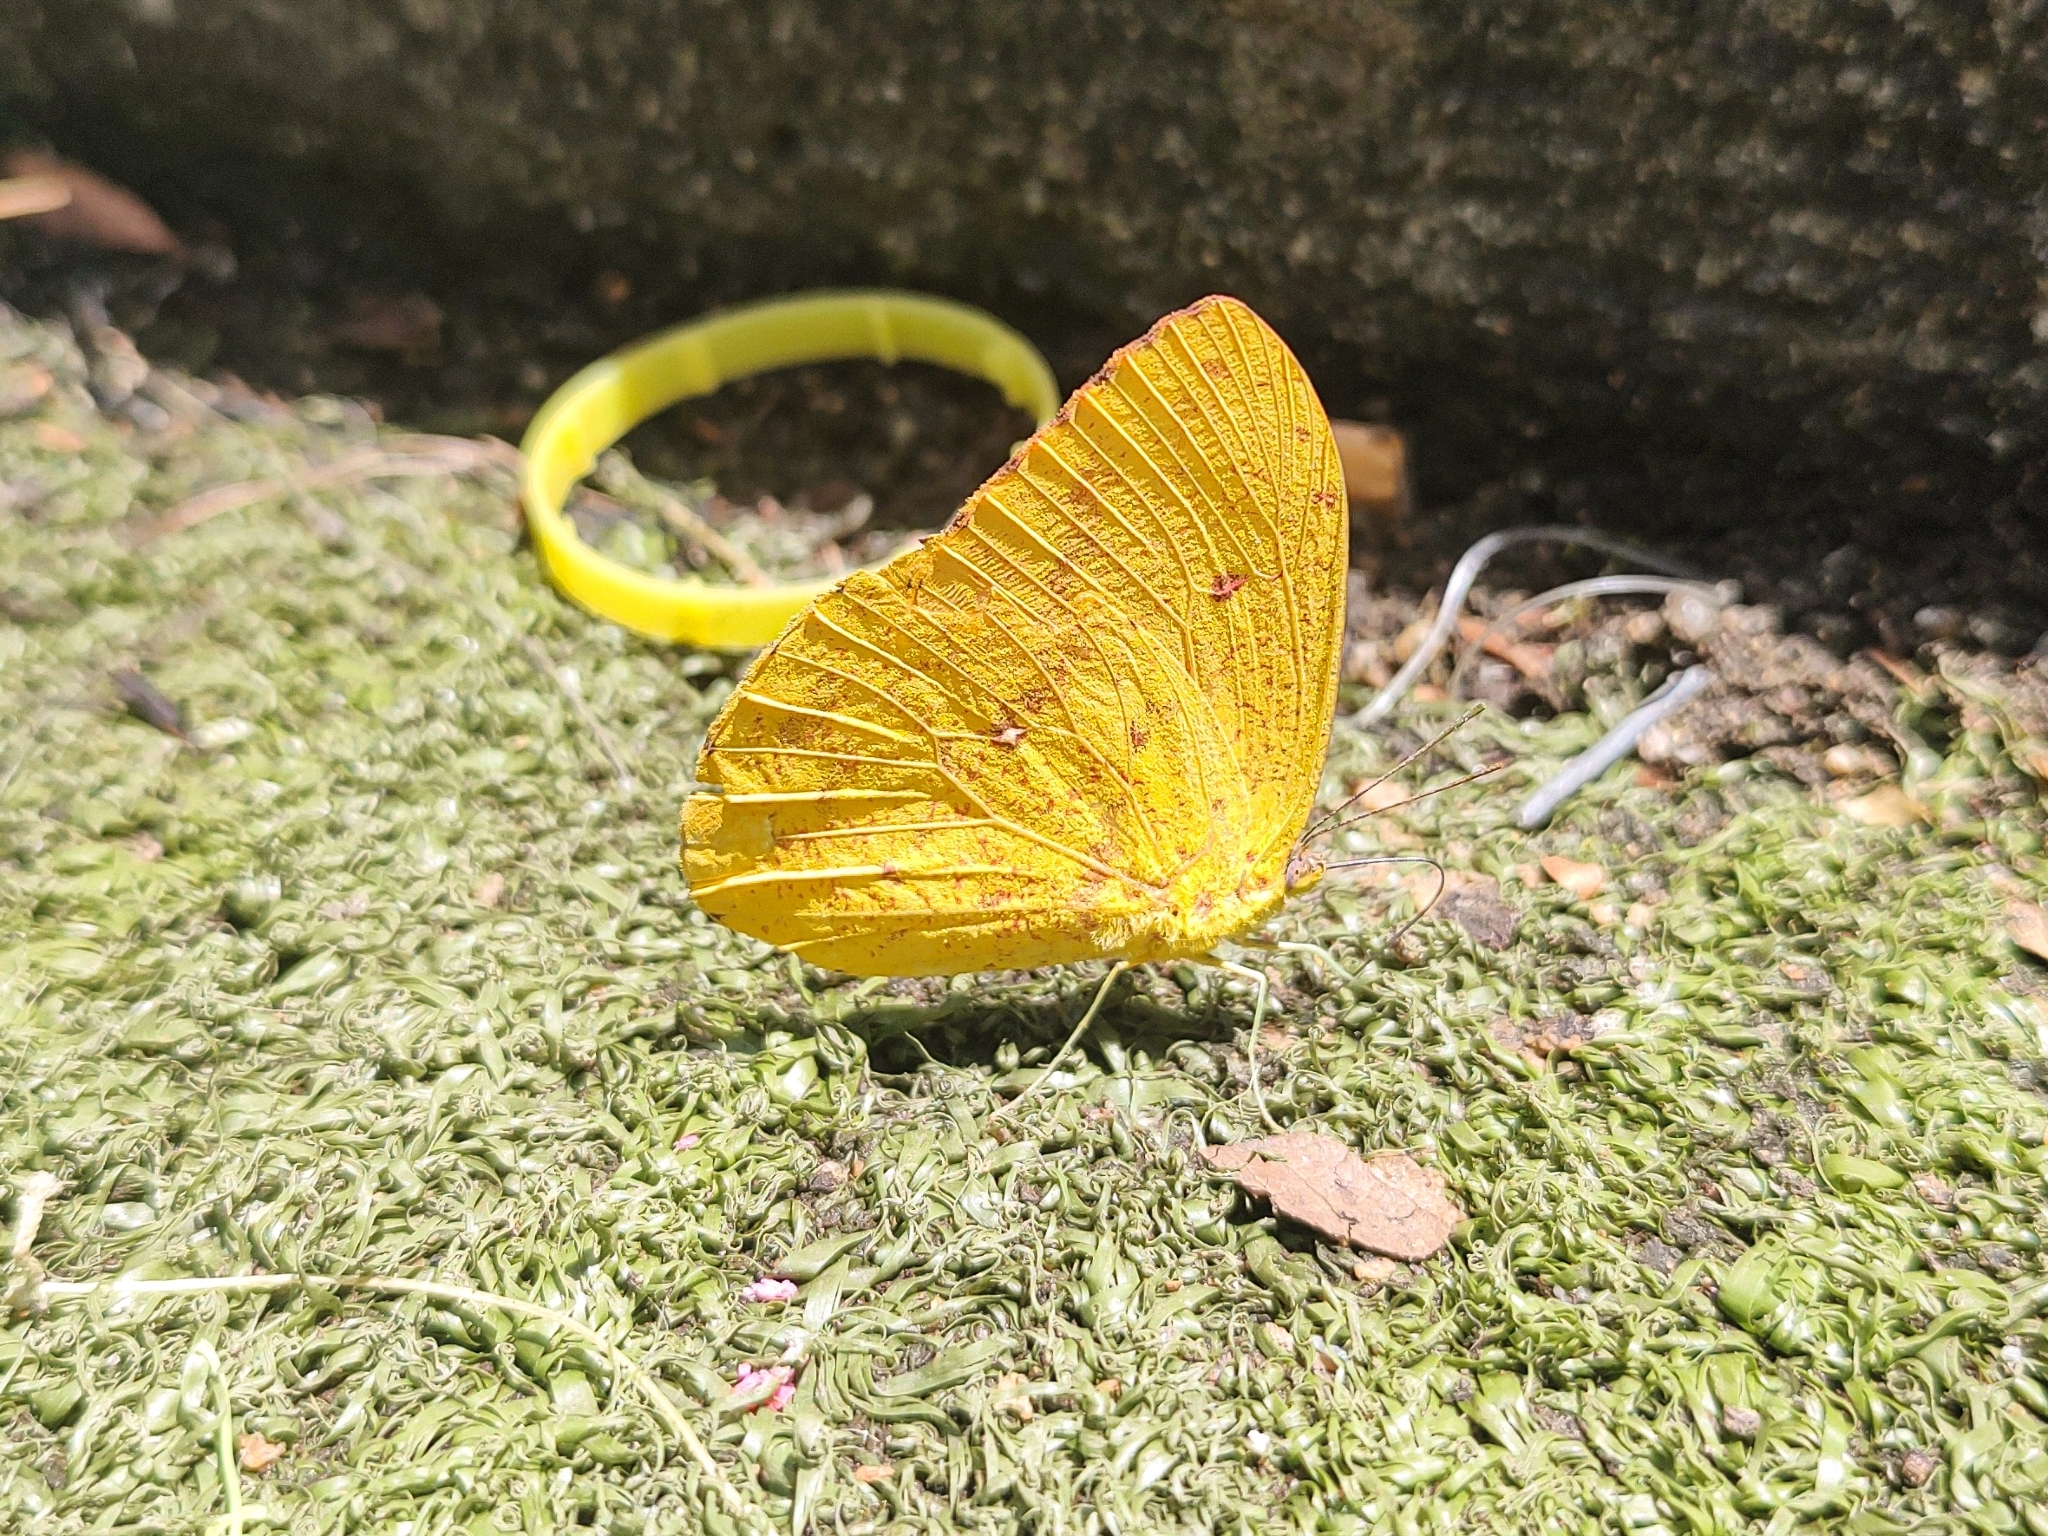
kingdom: Animalia
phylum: Arthropoda
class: Insecta
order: Lepidoptera
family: Pieridae
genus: Phoebis
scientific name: Phoebis argante
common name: Apricot sulphur
